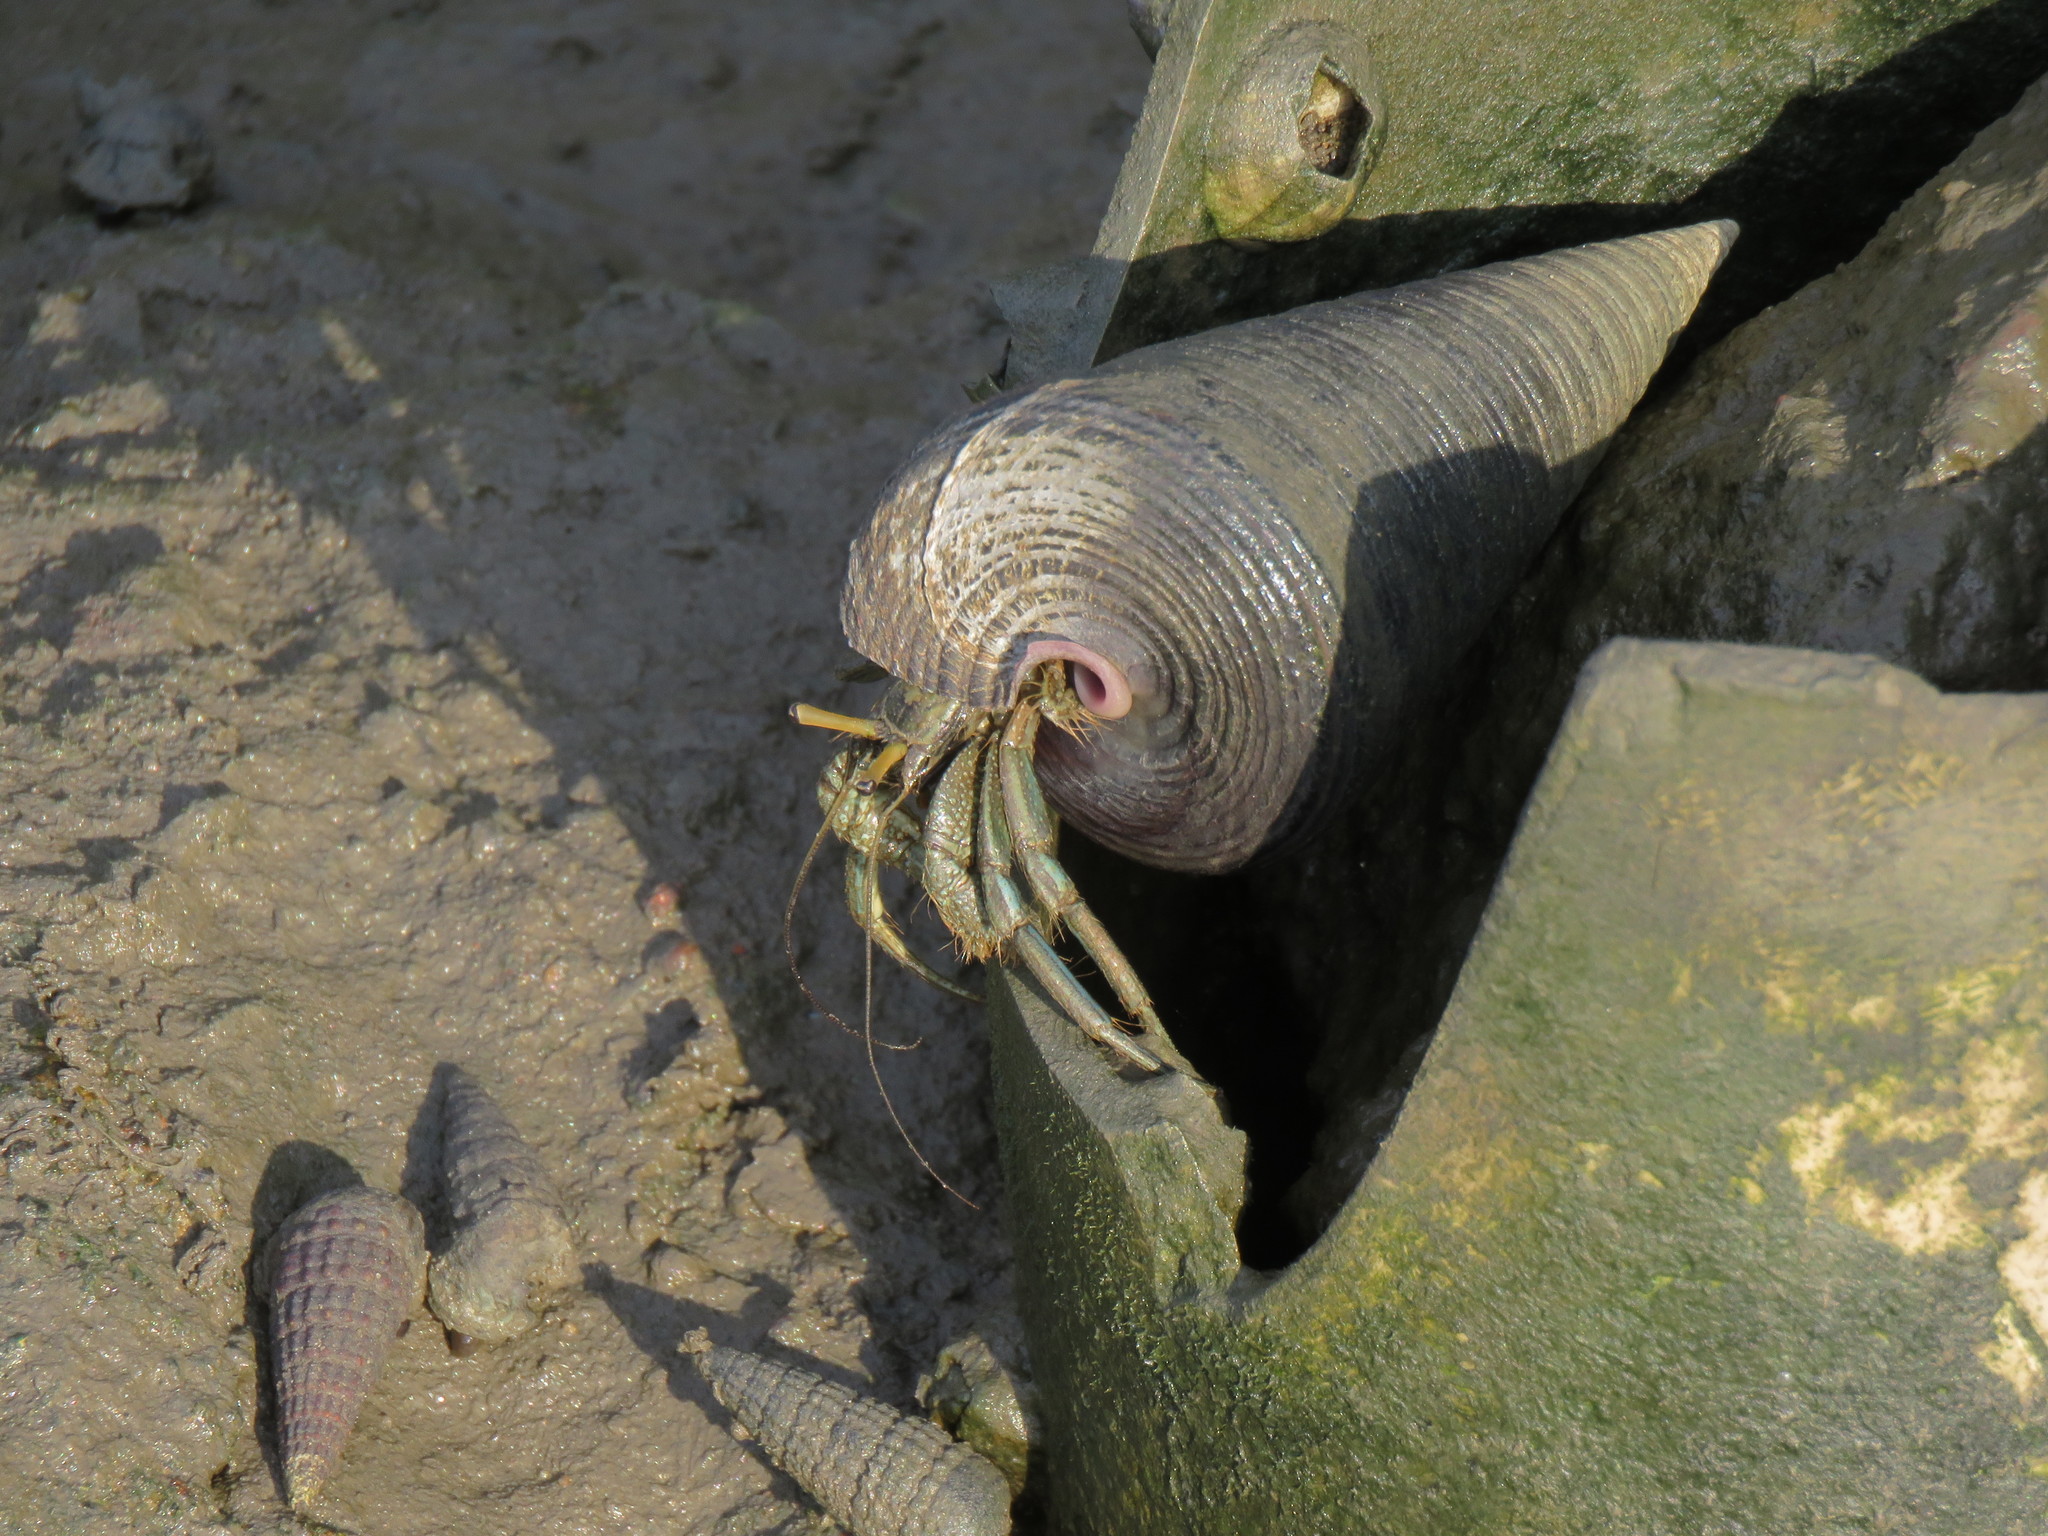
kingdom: Animalia
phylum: Mollusca
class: Gastropoda
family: Potamididae
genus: Telescopium
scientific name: Telescopium telescopium
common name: Telescope creeper
